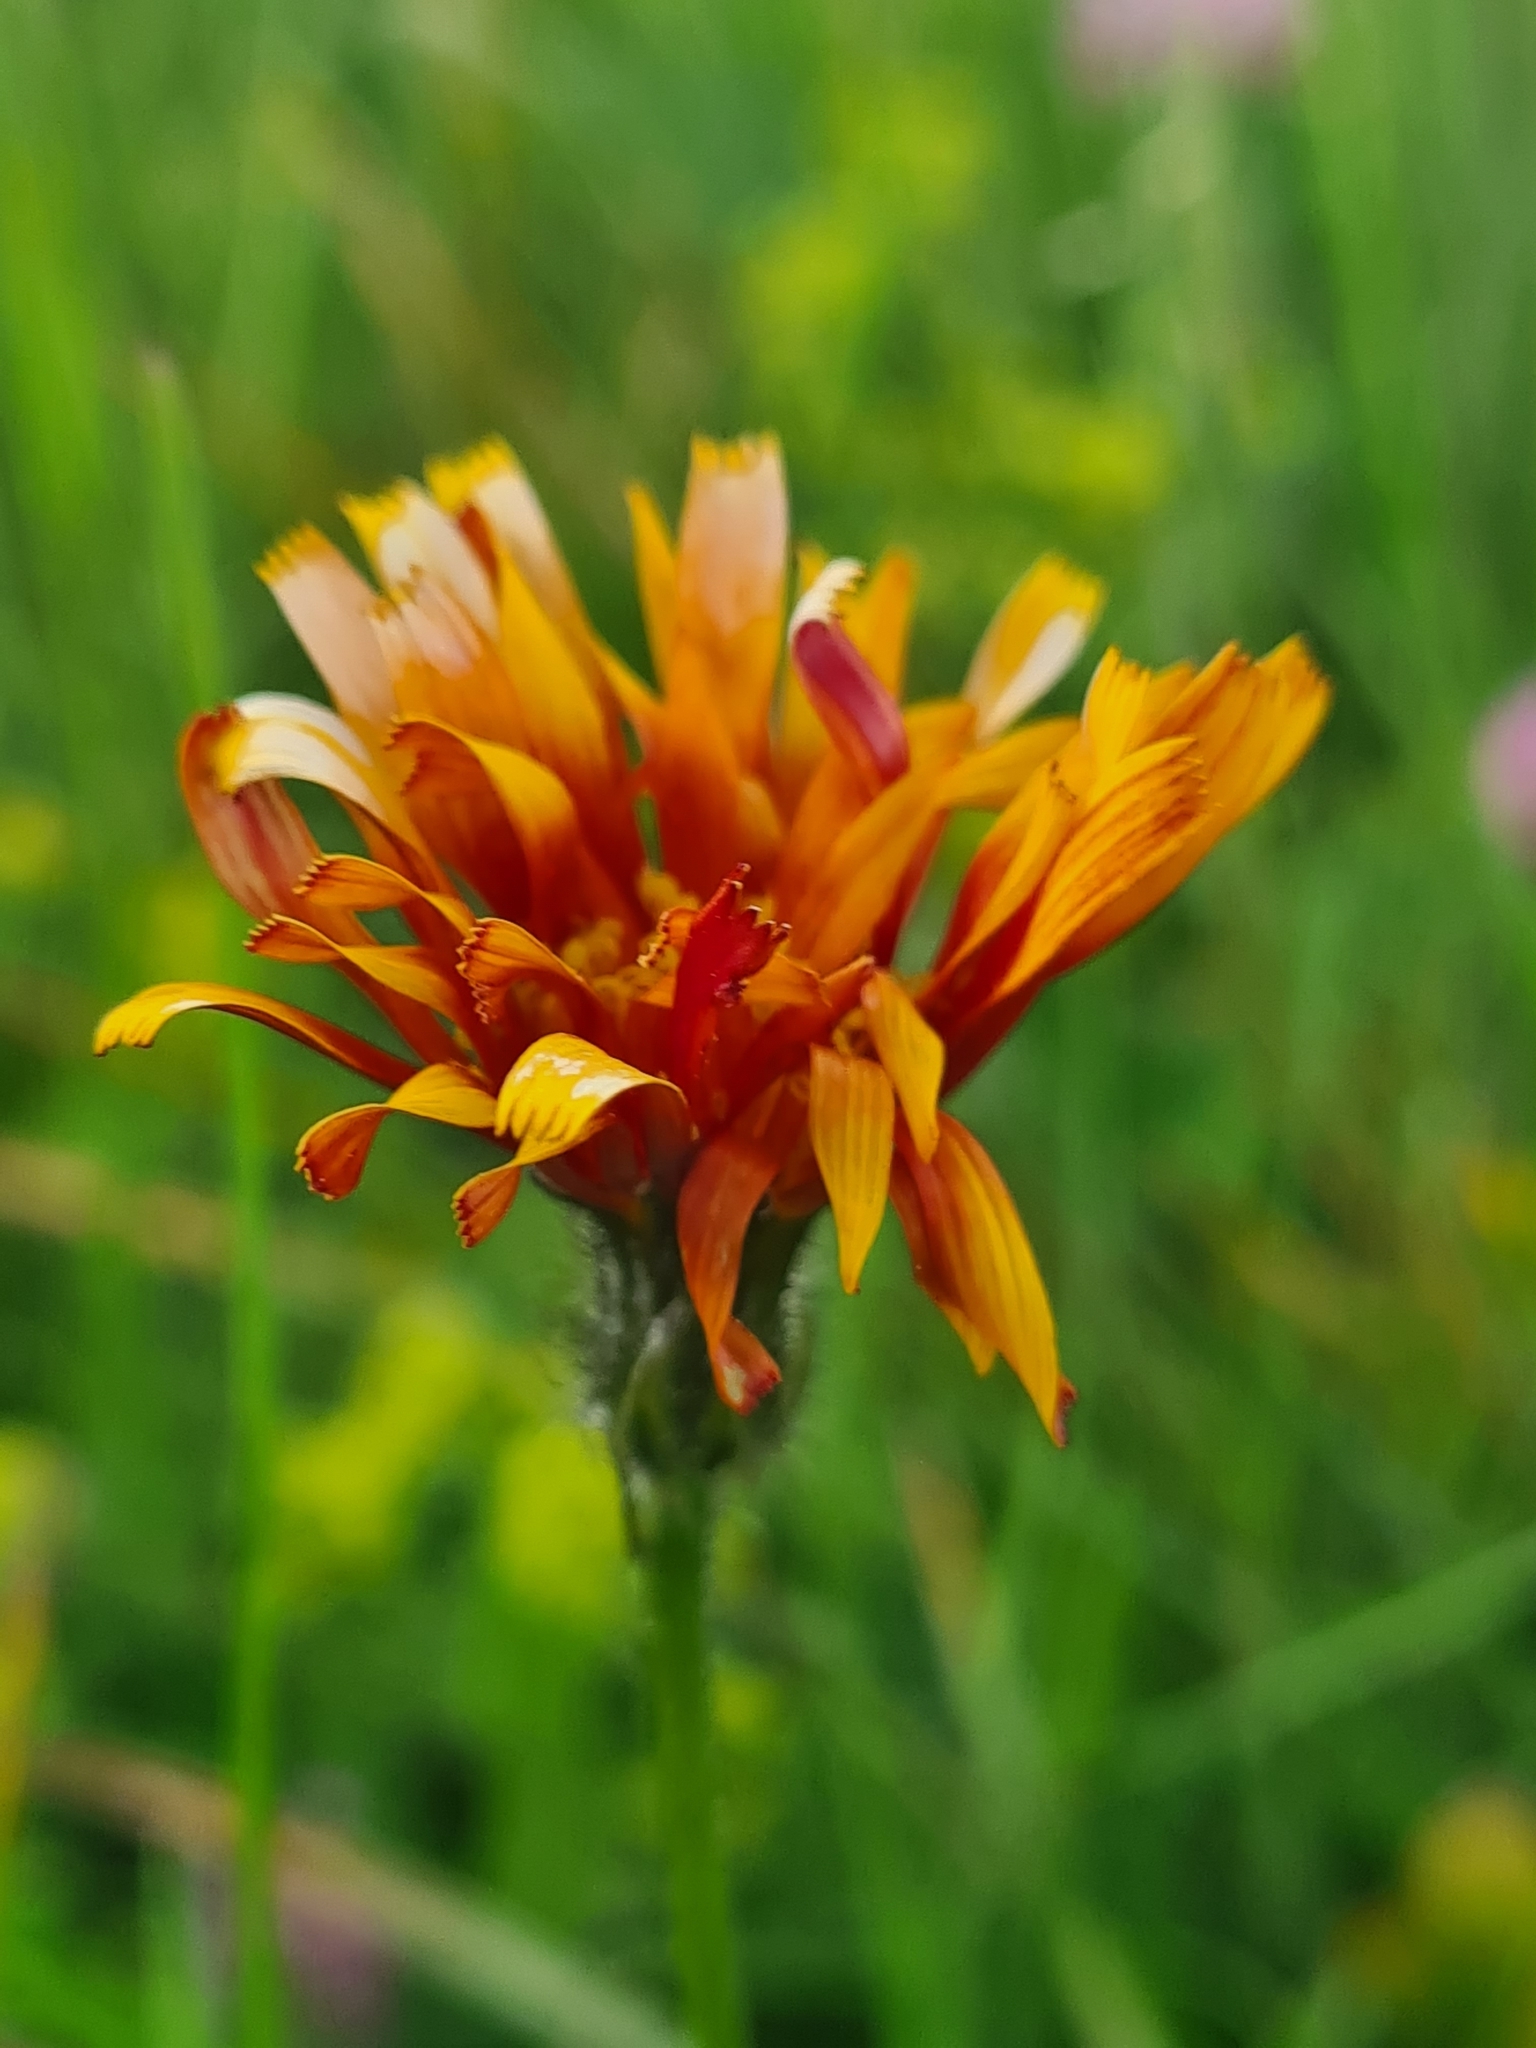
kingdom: Plantae
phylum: Tracheophyta
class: Magnoliopsida
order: Asterales
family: Asteraceae
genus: Crepis
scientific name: Crepis aurea
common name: Golden hawk's-beard
